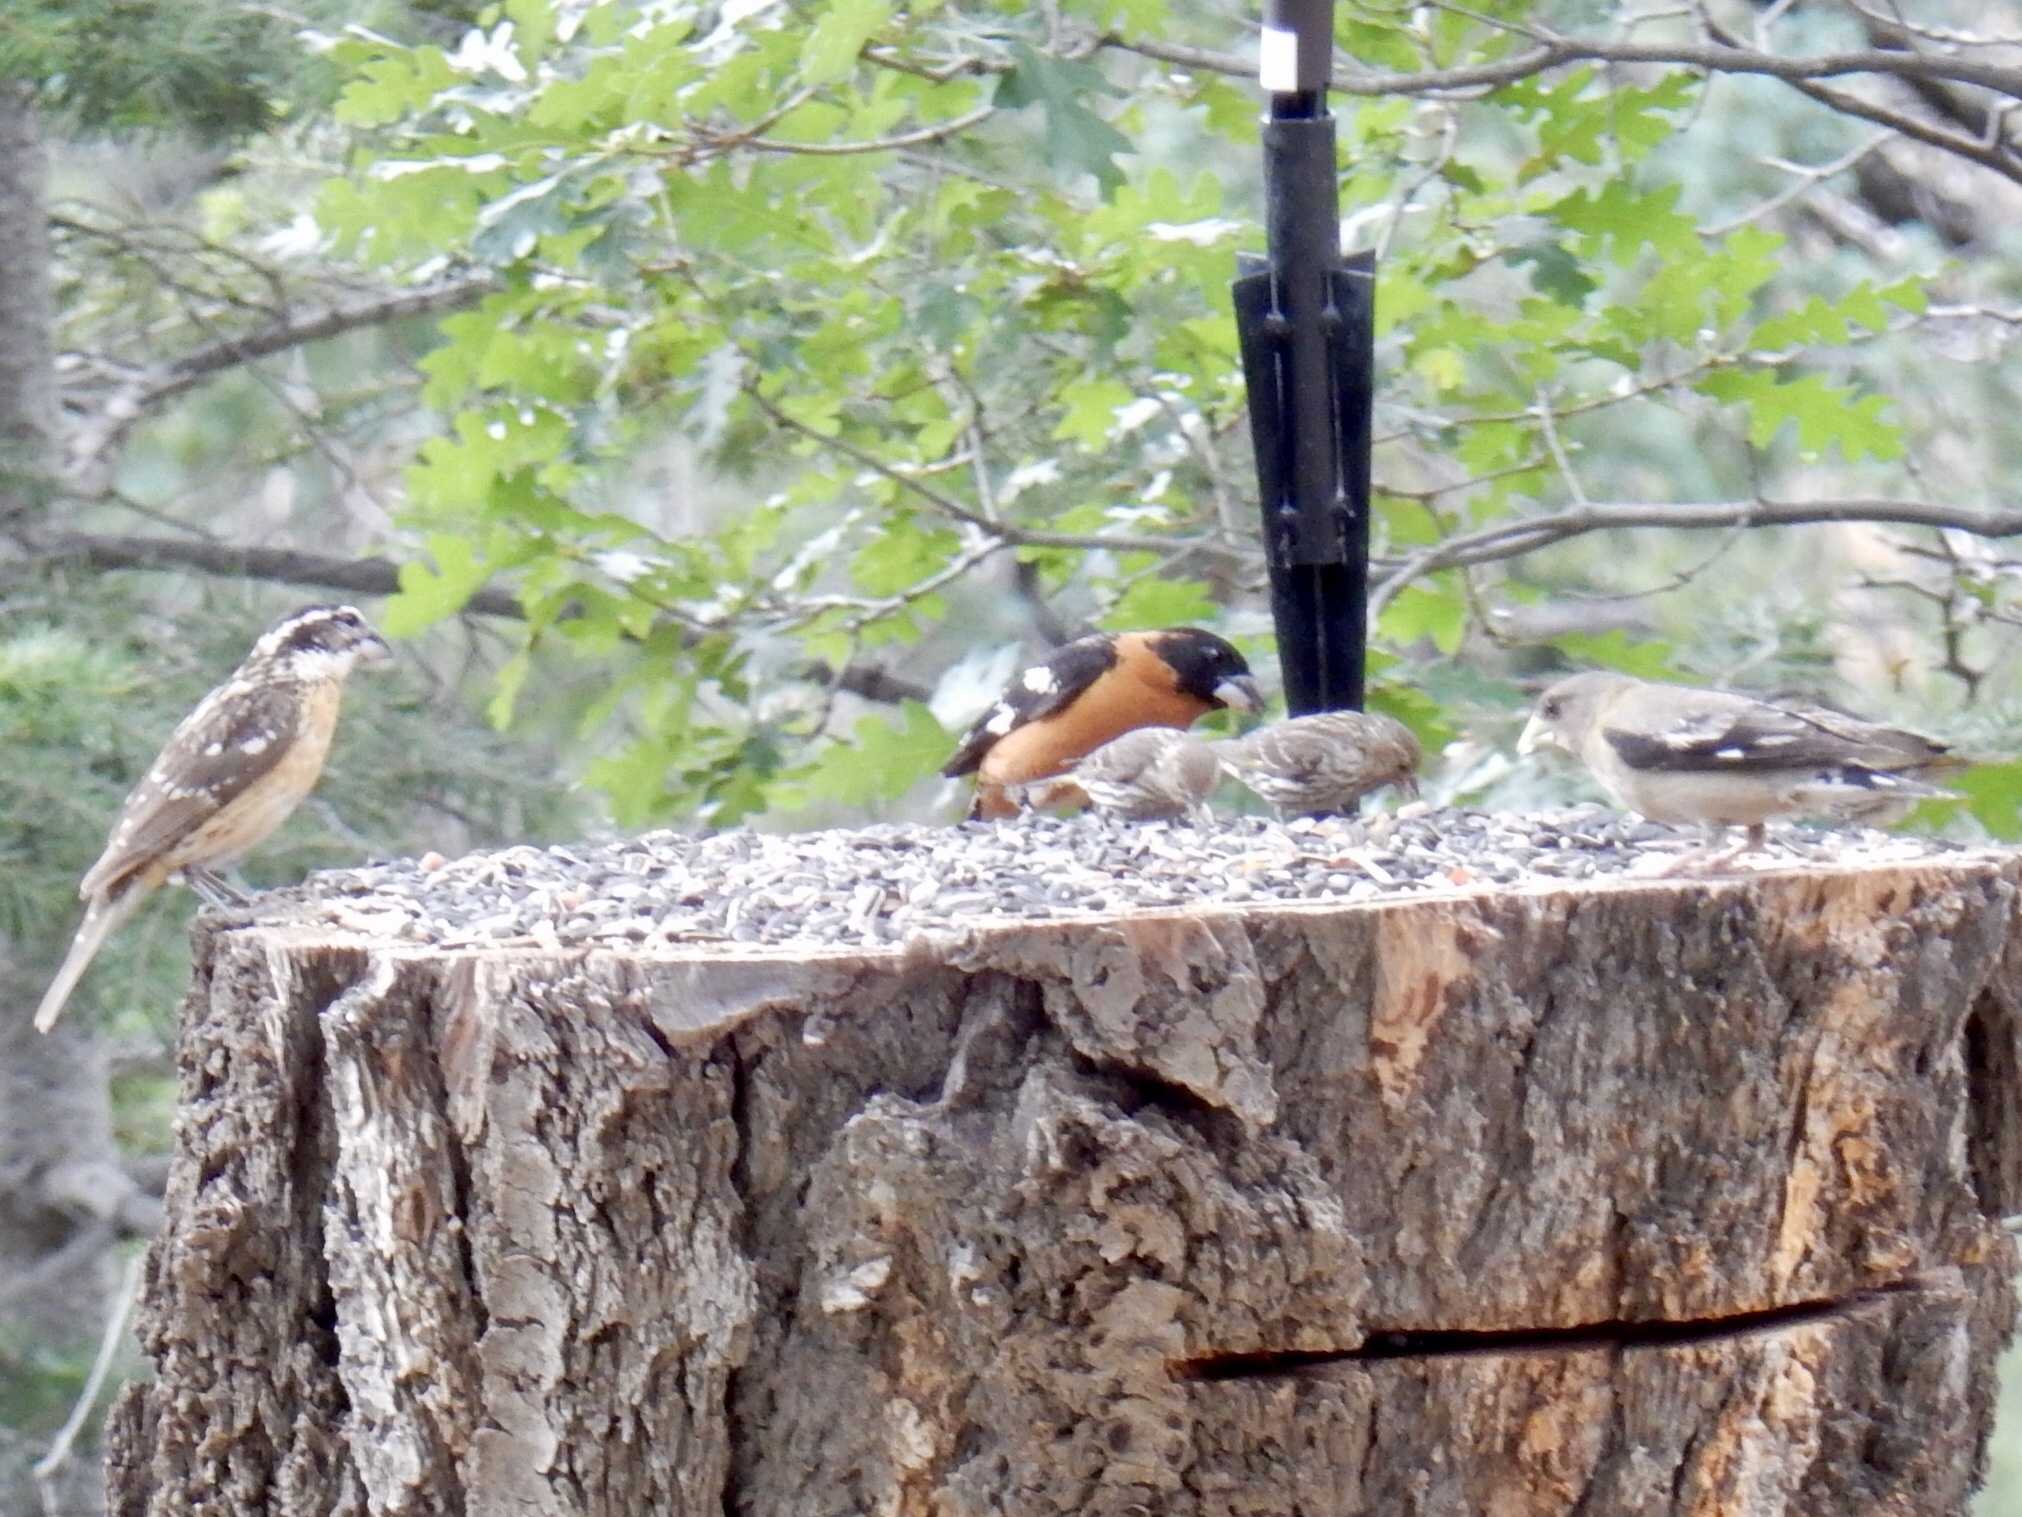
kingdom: Animalia
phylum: Chordata
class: Aves
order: Passeriformes
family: Fringillidae
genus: Hesperiphona
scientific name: Hesperiphona vespertina
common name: Evening grosbeak
